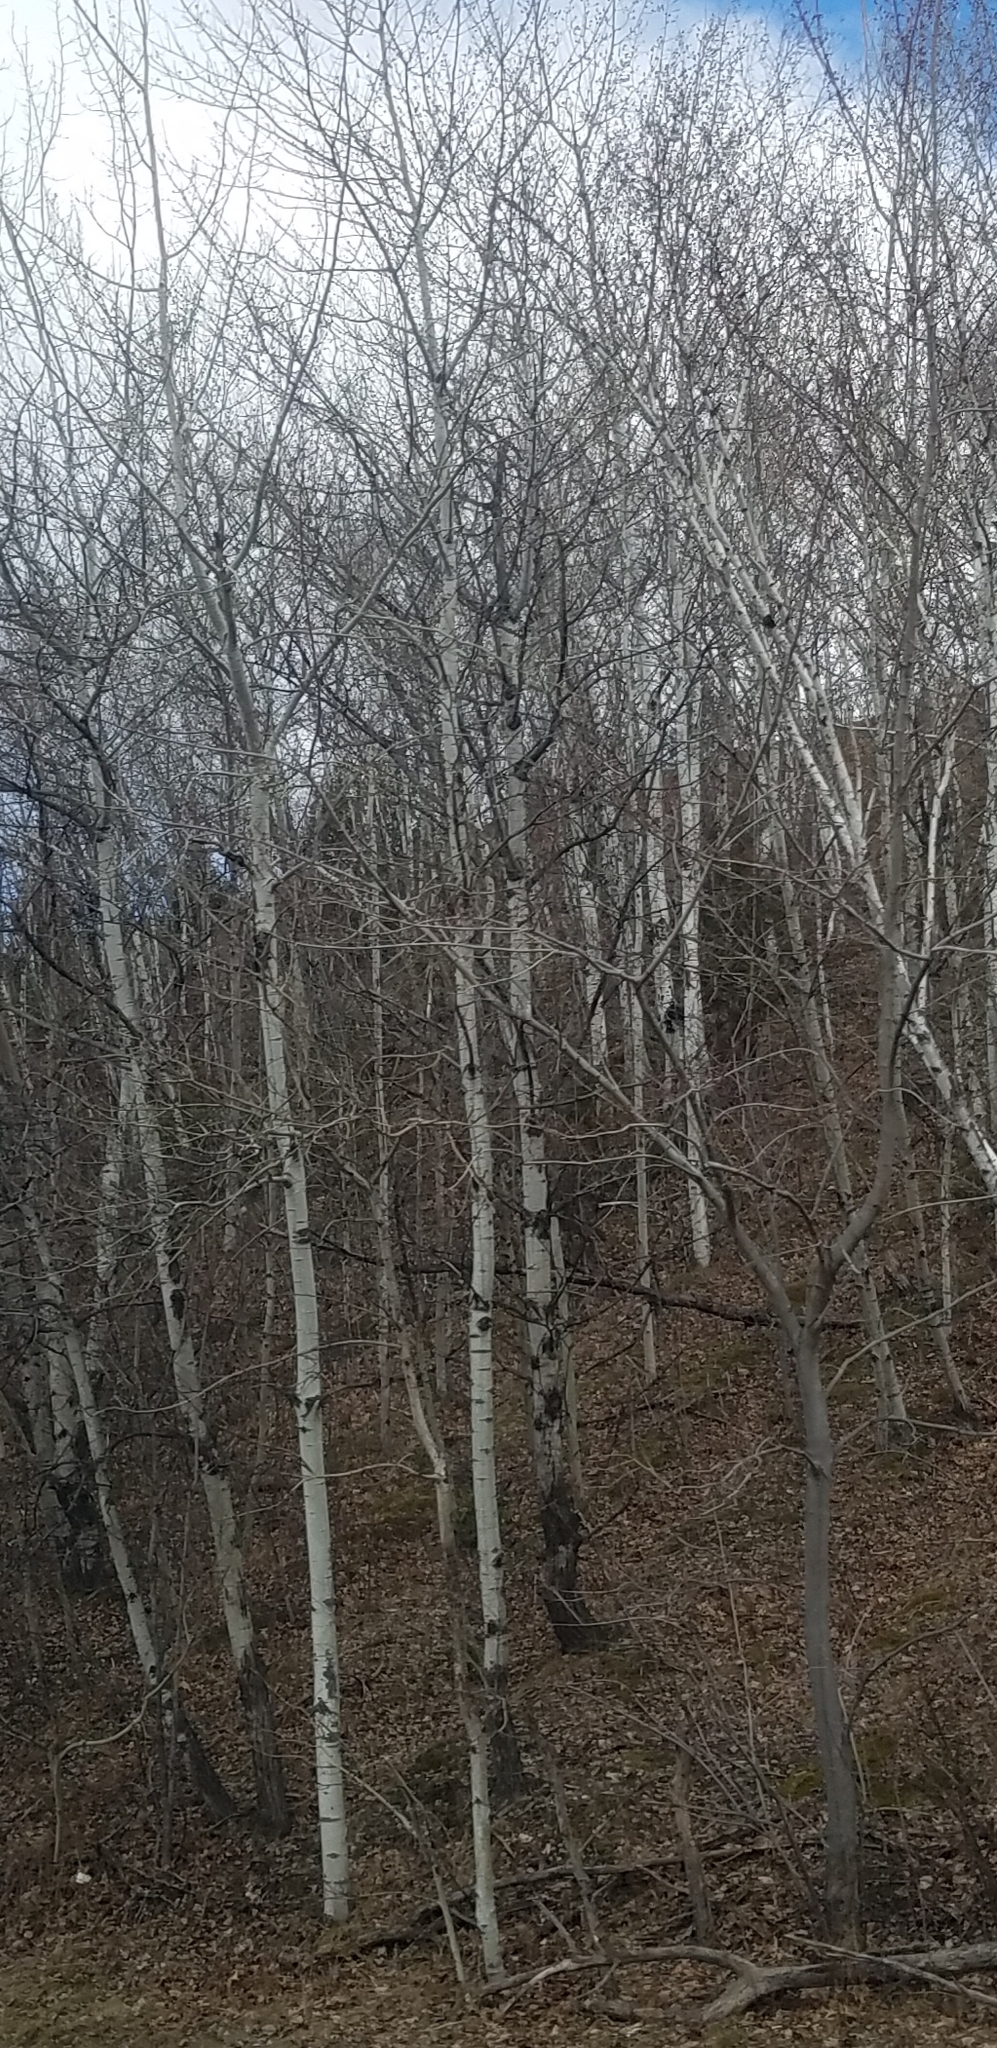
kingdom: Plantae
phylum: Tracheophyta
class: Magnoliopsida
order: Malpighiales
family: Salicaceae
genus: Populus
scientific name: Populus tremuloides
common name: Quaking aspen
